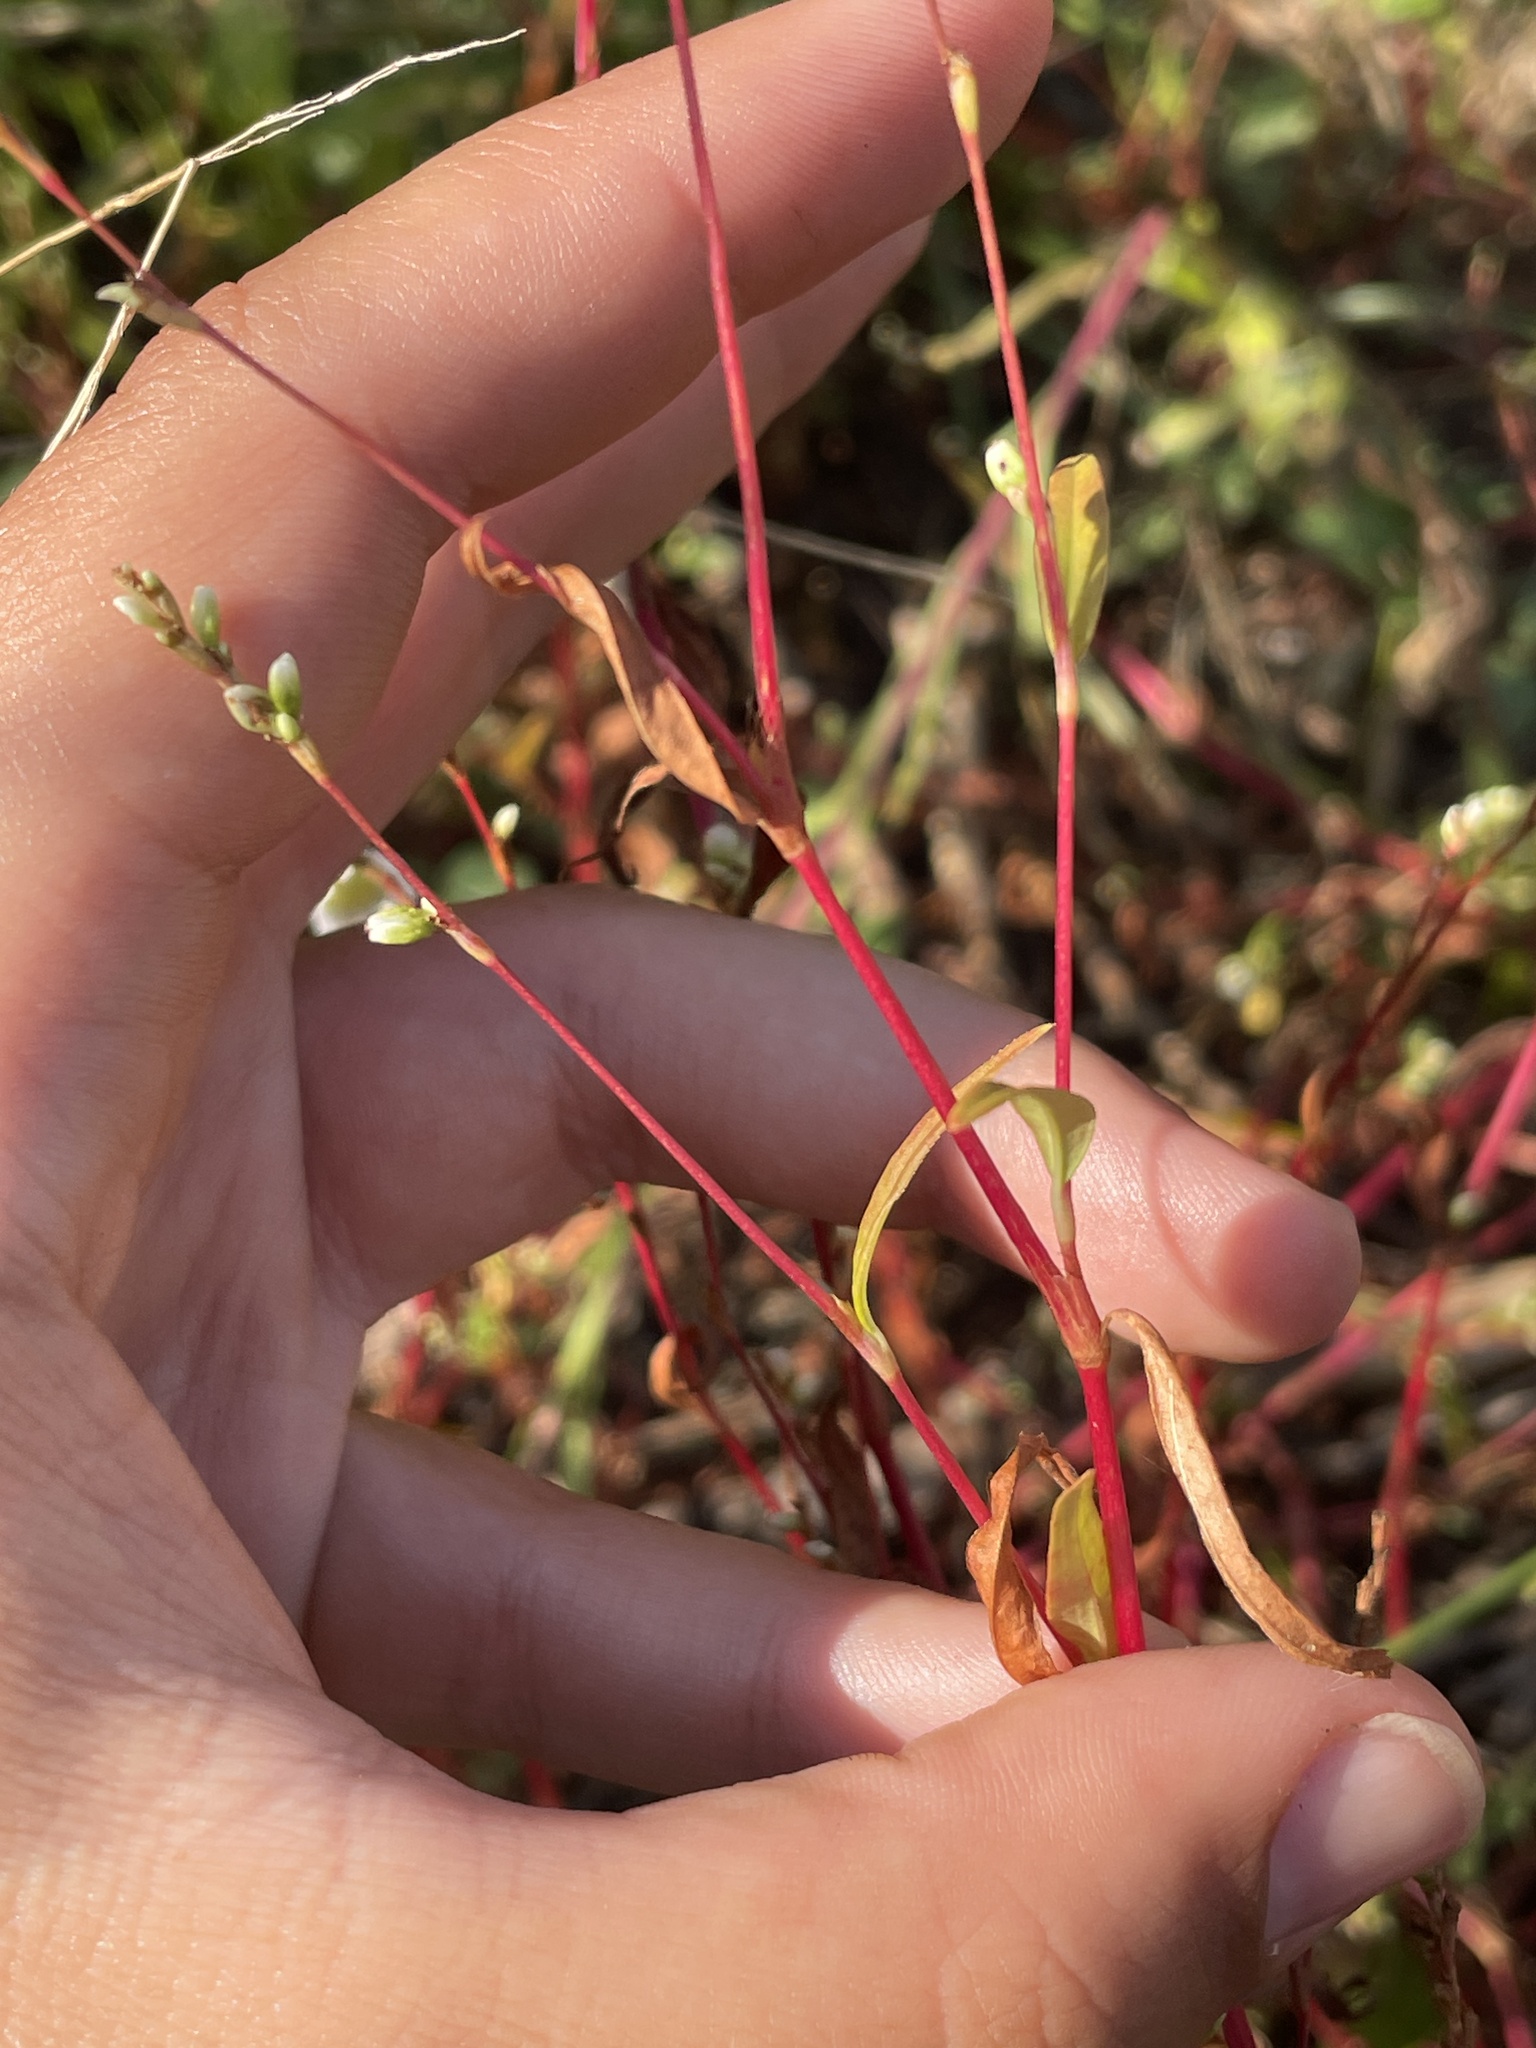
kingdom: Plantae
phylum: Tracheophyta
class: Magnoliopsida
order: Caryophyllales
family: Polygonaceae
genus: Persicaria
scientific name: Persicaria punctata
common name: Dotted smartweed
